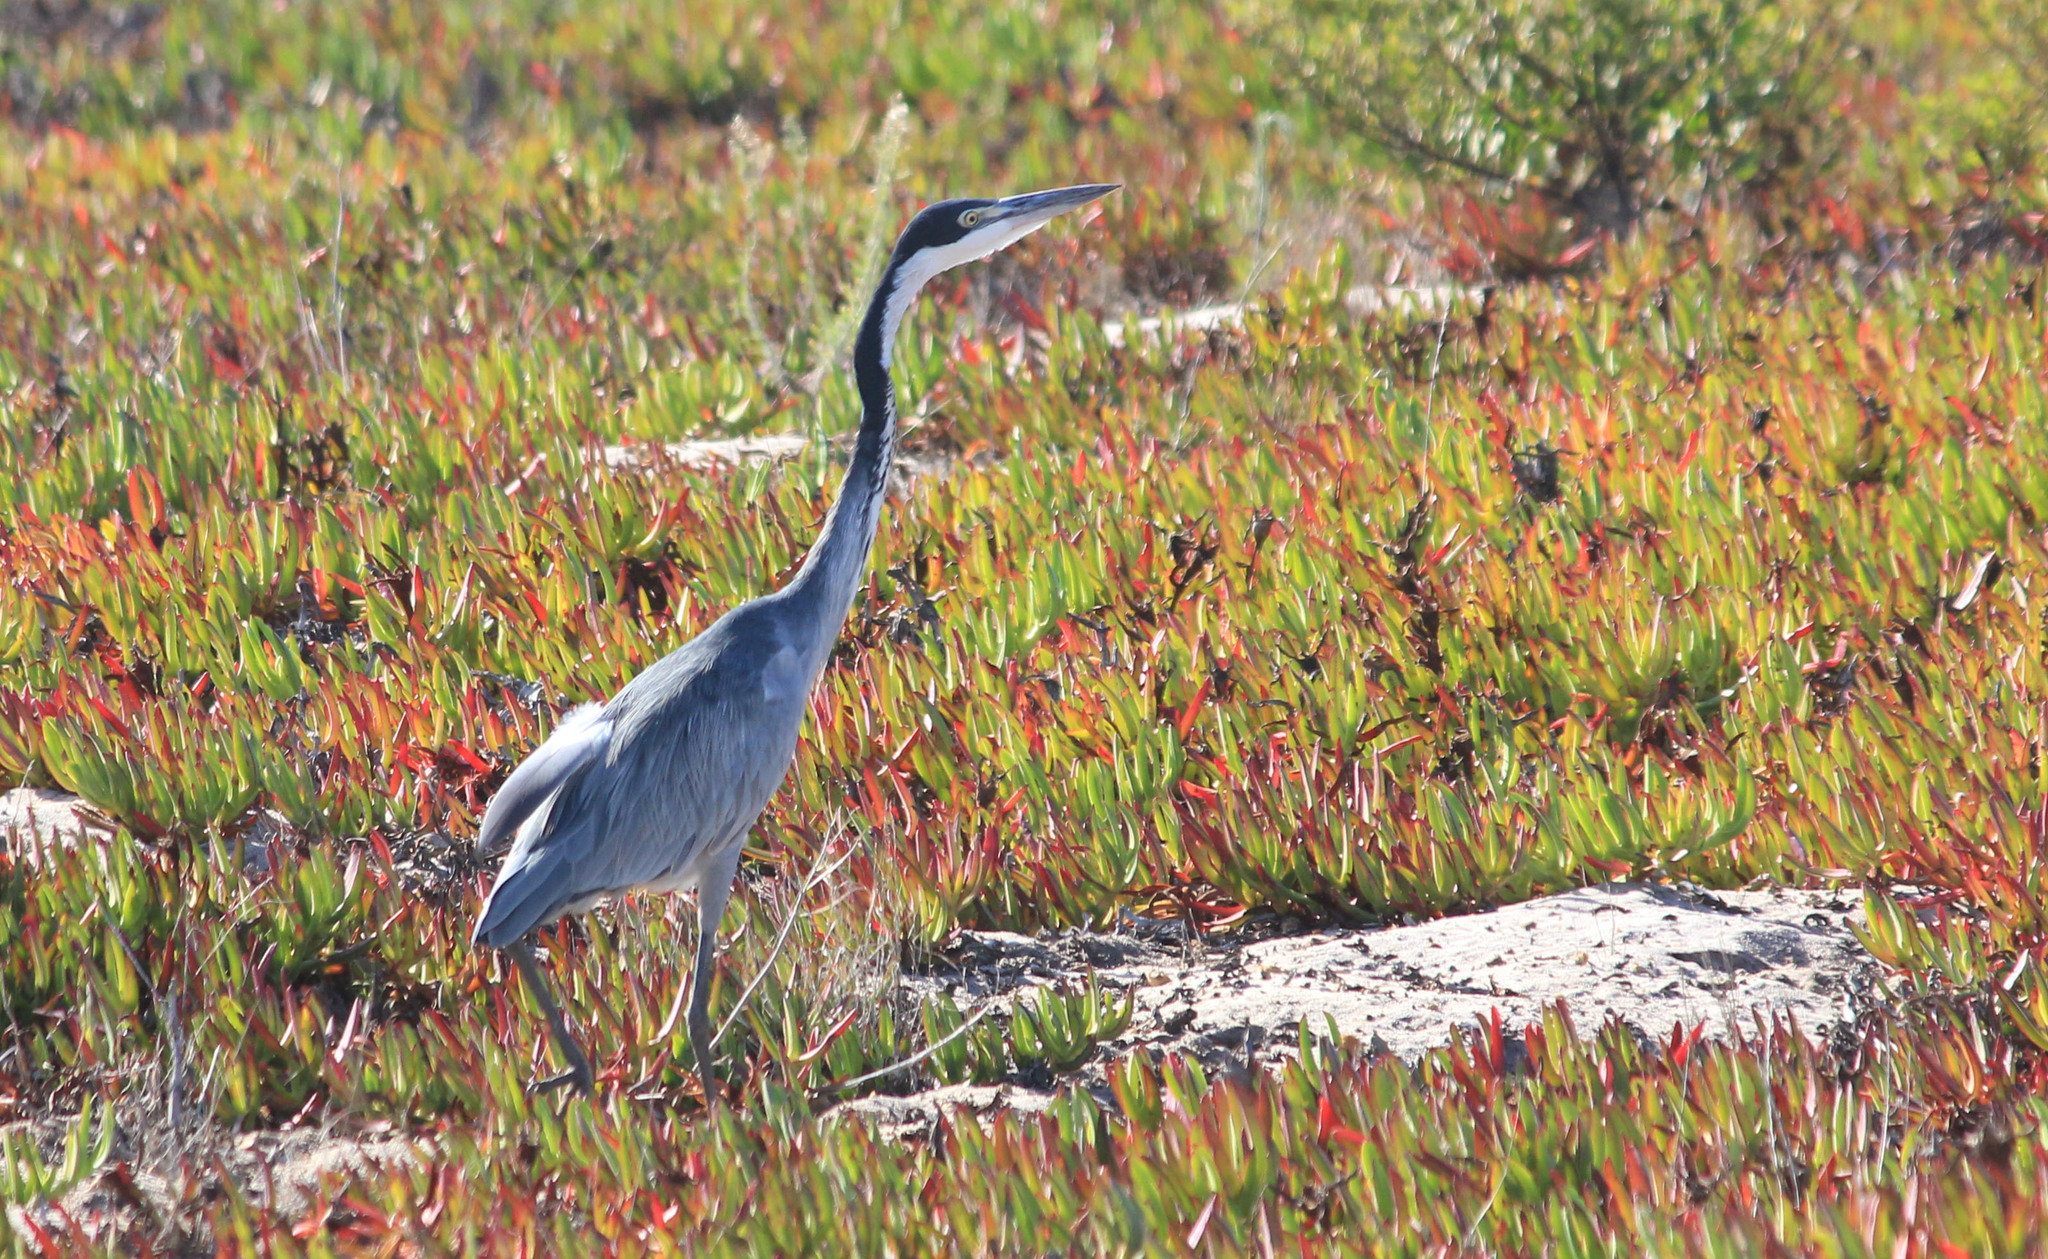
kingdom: Animalia
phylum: Chordata
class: Aves
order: Pelecaniformes
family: Ardeidae
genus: Ardea
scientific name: Ardea melanocephala
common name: Black-headed heron
